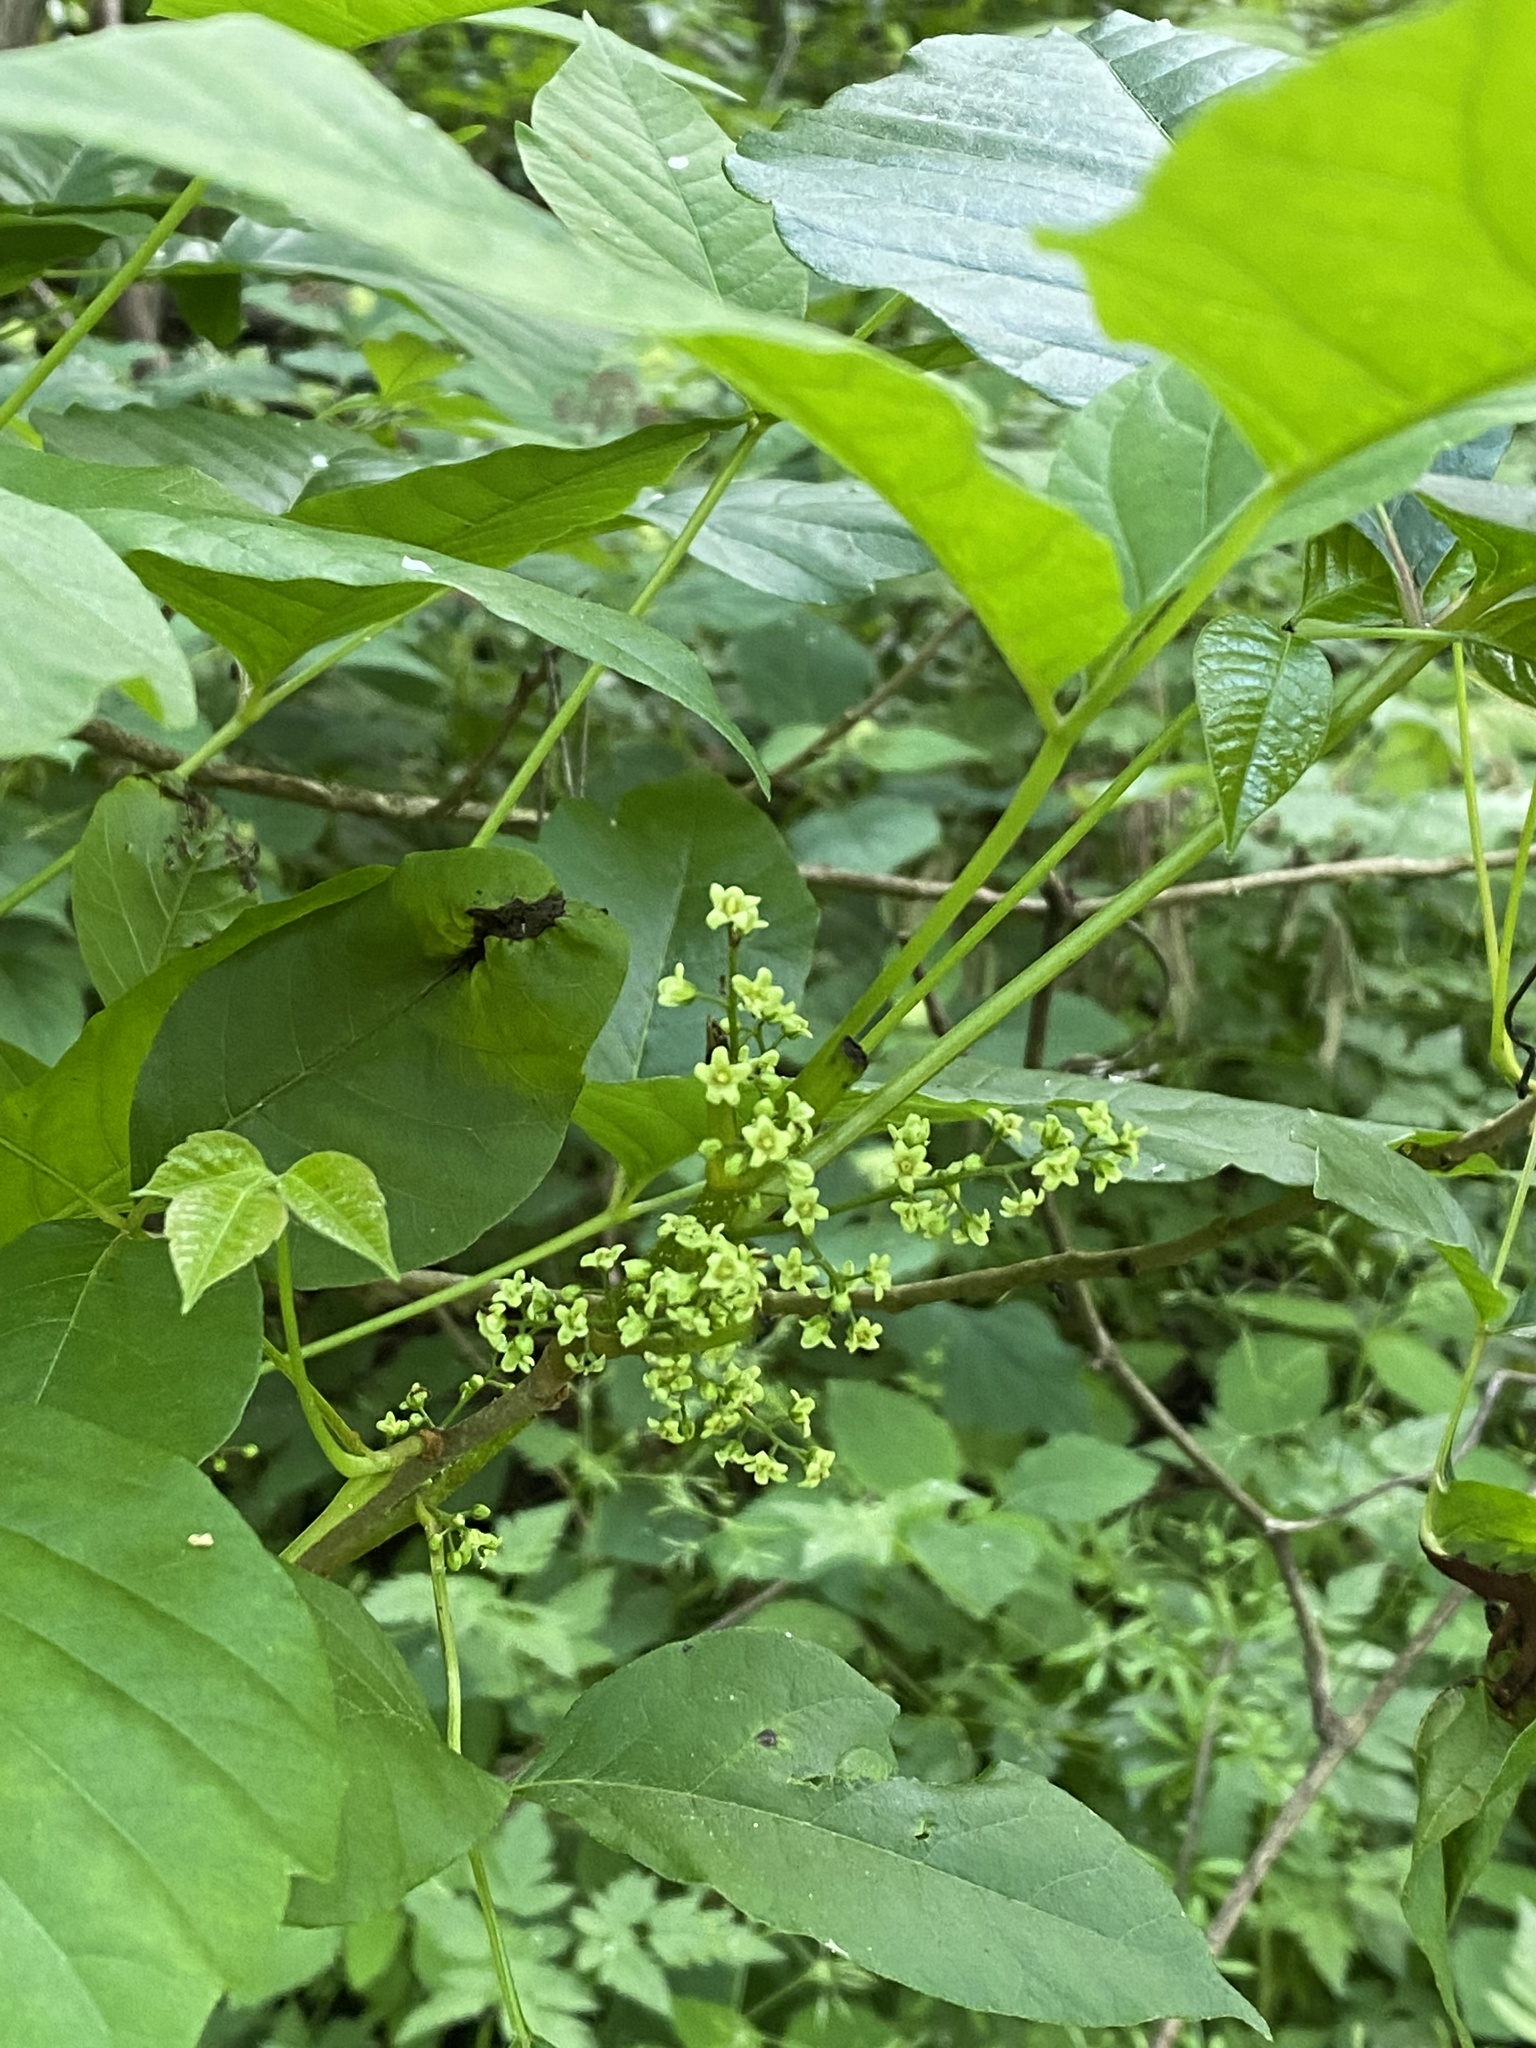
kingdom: Plantae
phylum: Tracheophyta
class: Magnoliopsida
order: Sapindales
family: Anacardiaceae
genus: Toxicodendron
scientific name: Toxicodendron radicans
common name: Poison ivy
